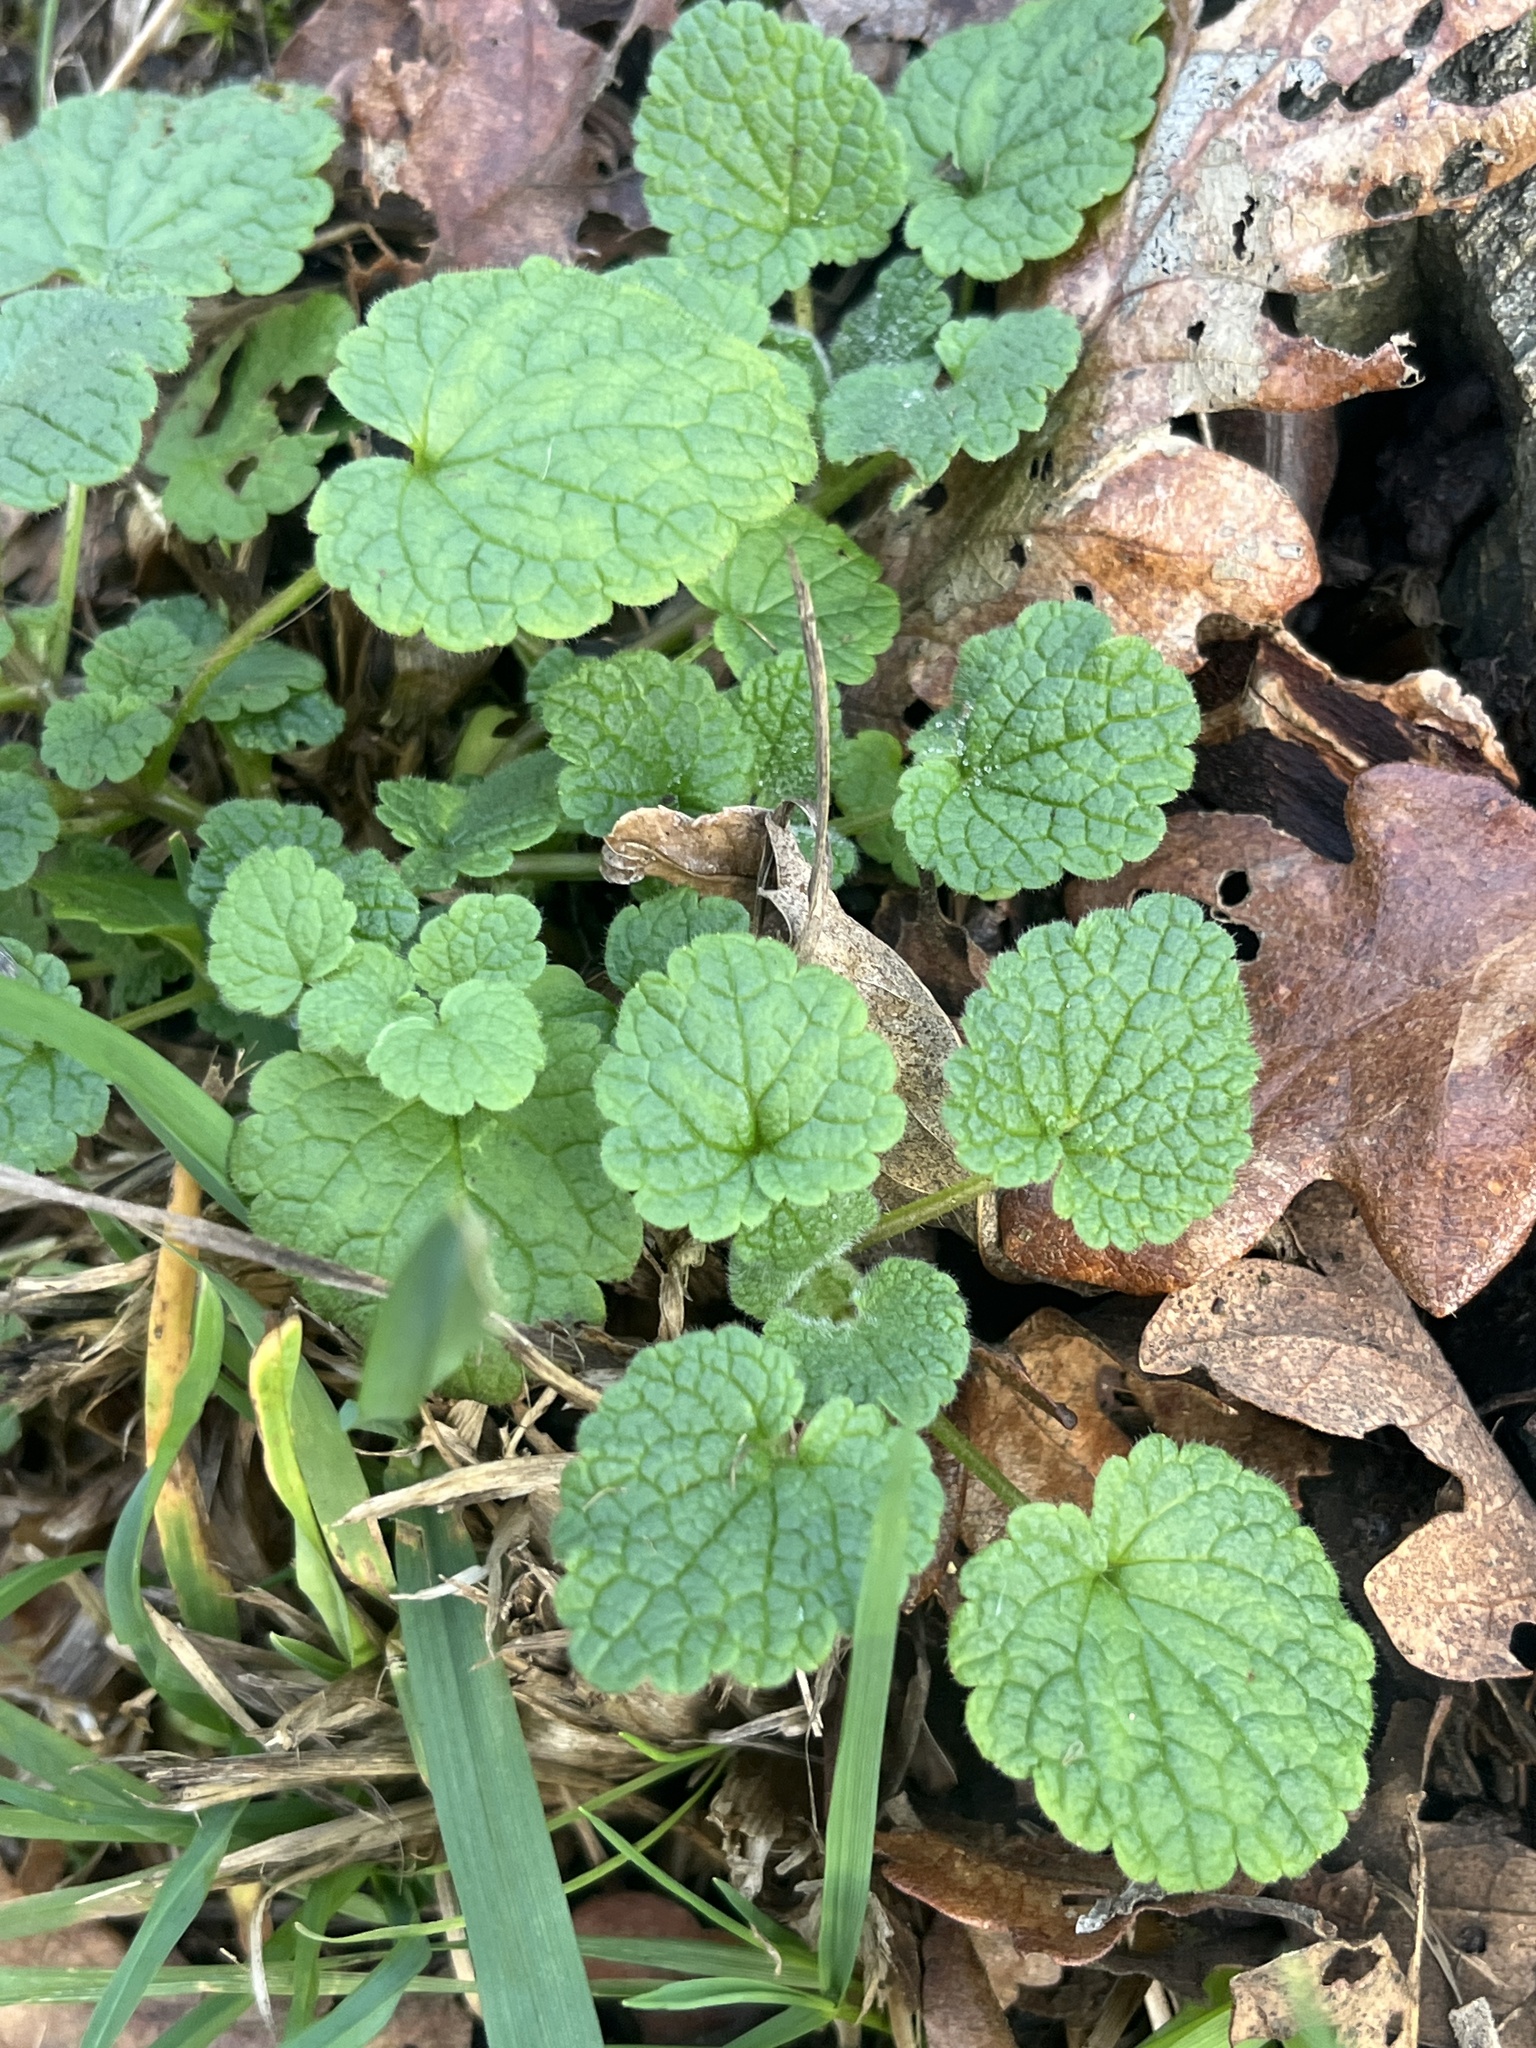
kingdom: Plantae
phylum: Tracheophyta
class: Magnoliopsida
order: Lamiales
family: Lamiaceae
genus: Lamium
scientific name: Lamium purpureum
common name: Red dead-nettle
